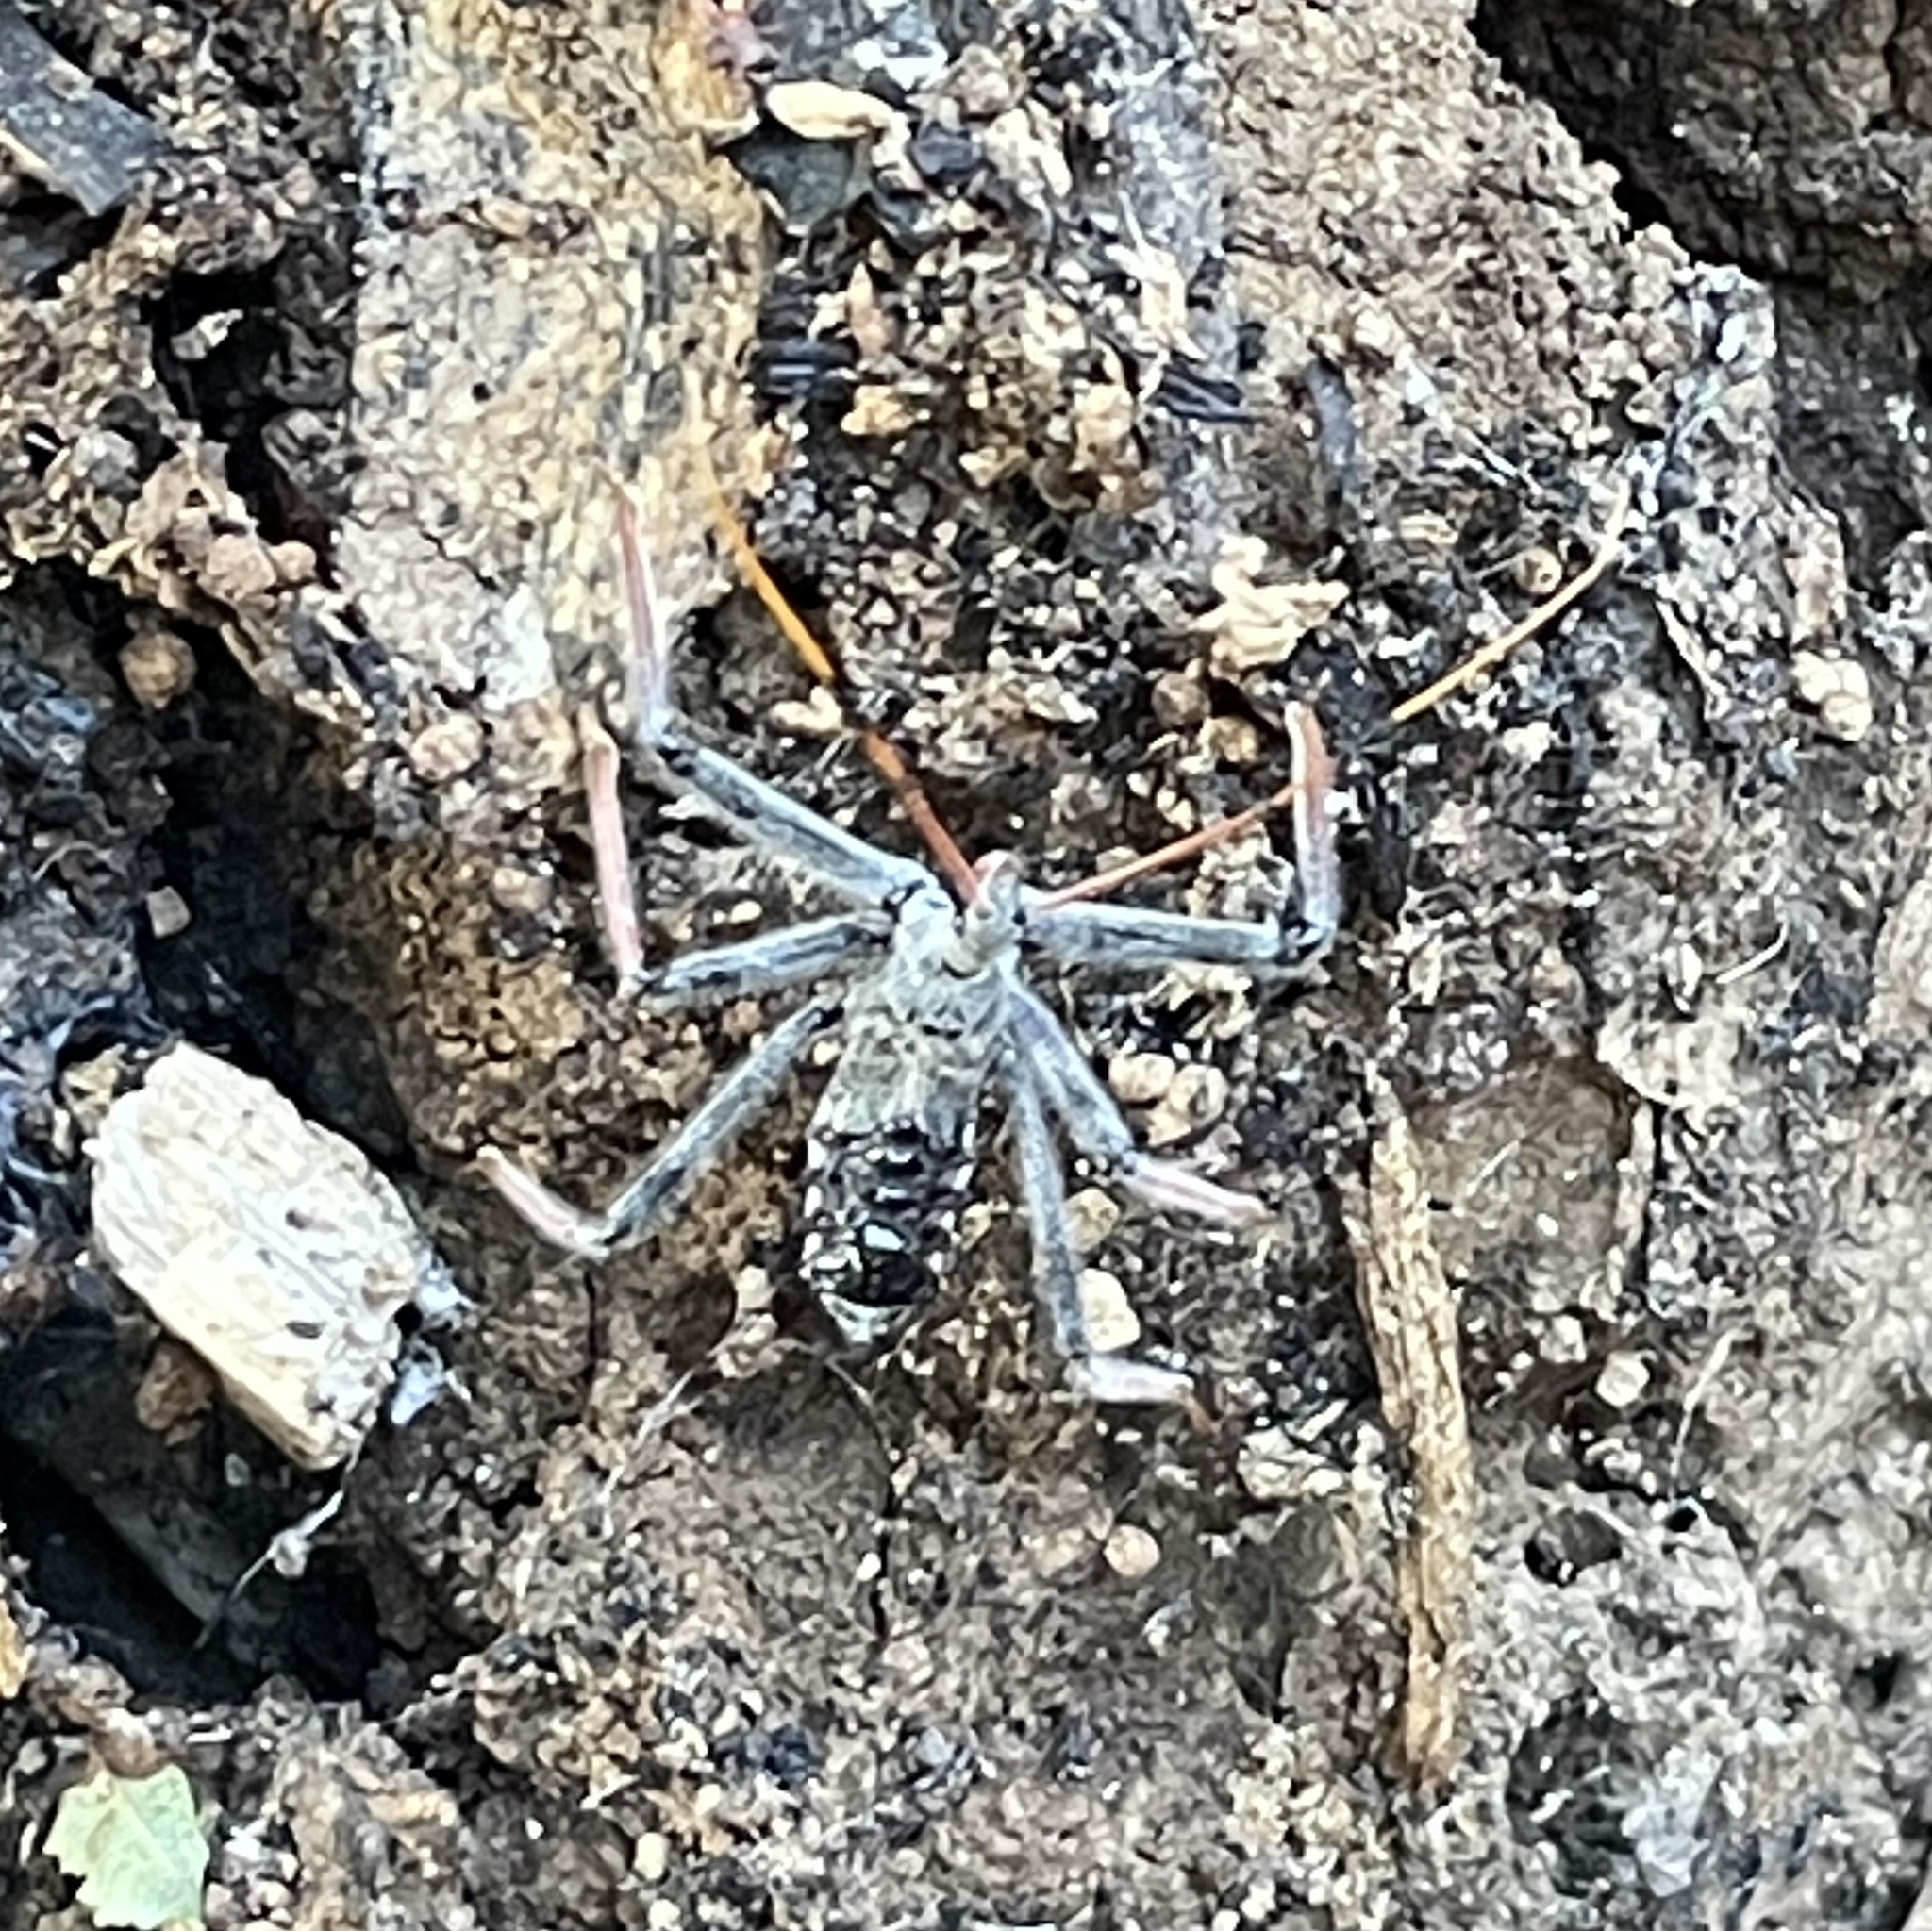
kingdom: Animalia
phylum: Arthropoda
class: Insecta
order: Hemiptera
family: Reduviidae
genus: Arilus
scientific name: Arilus cristatus
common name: North american wheel bug
